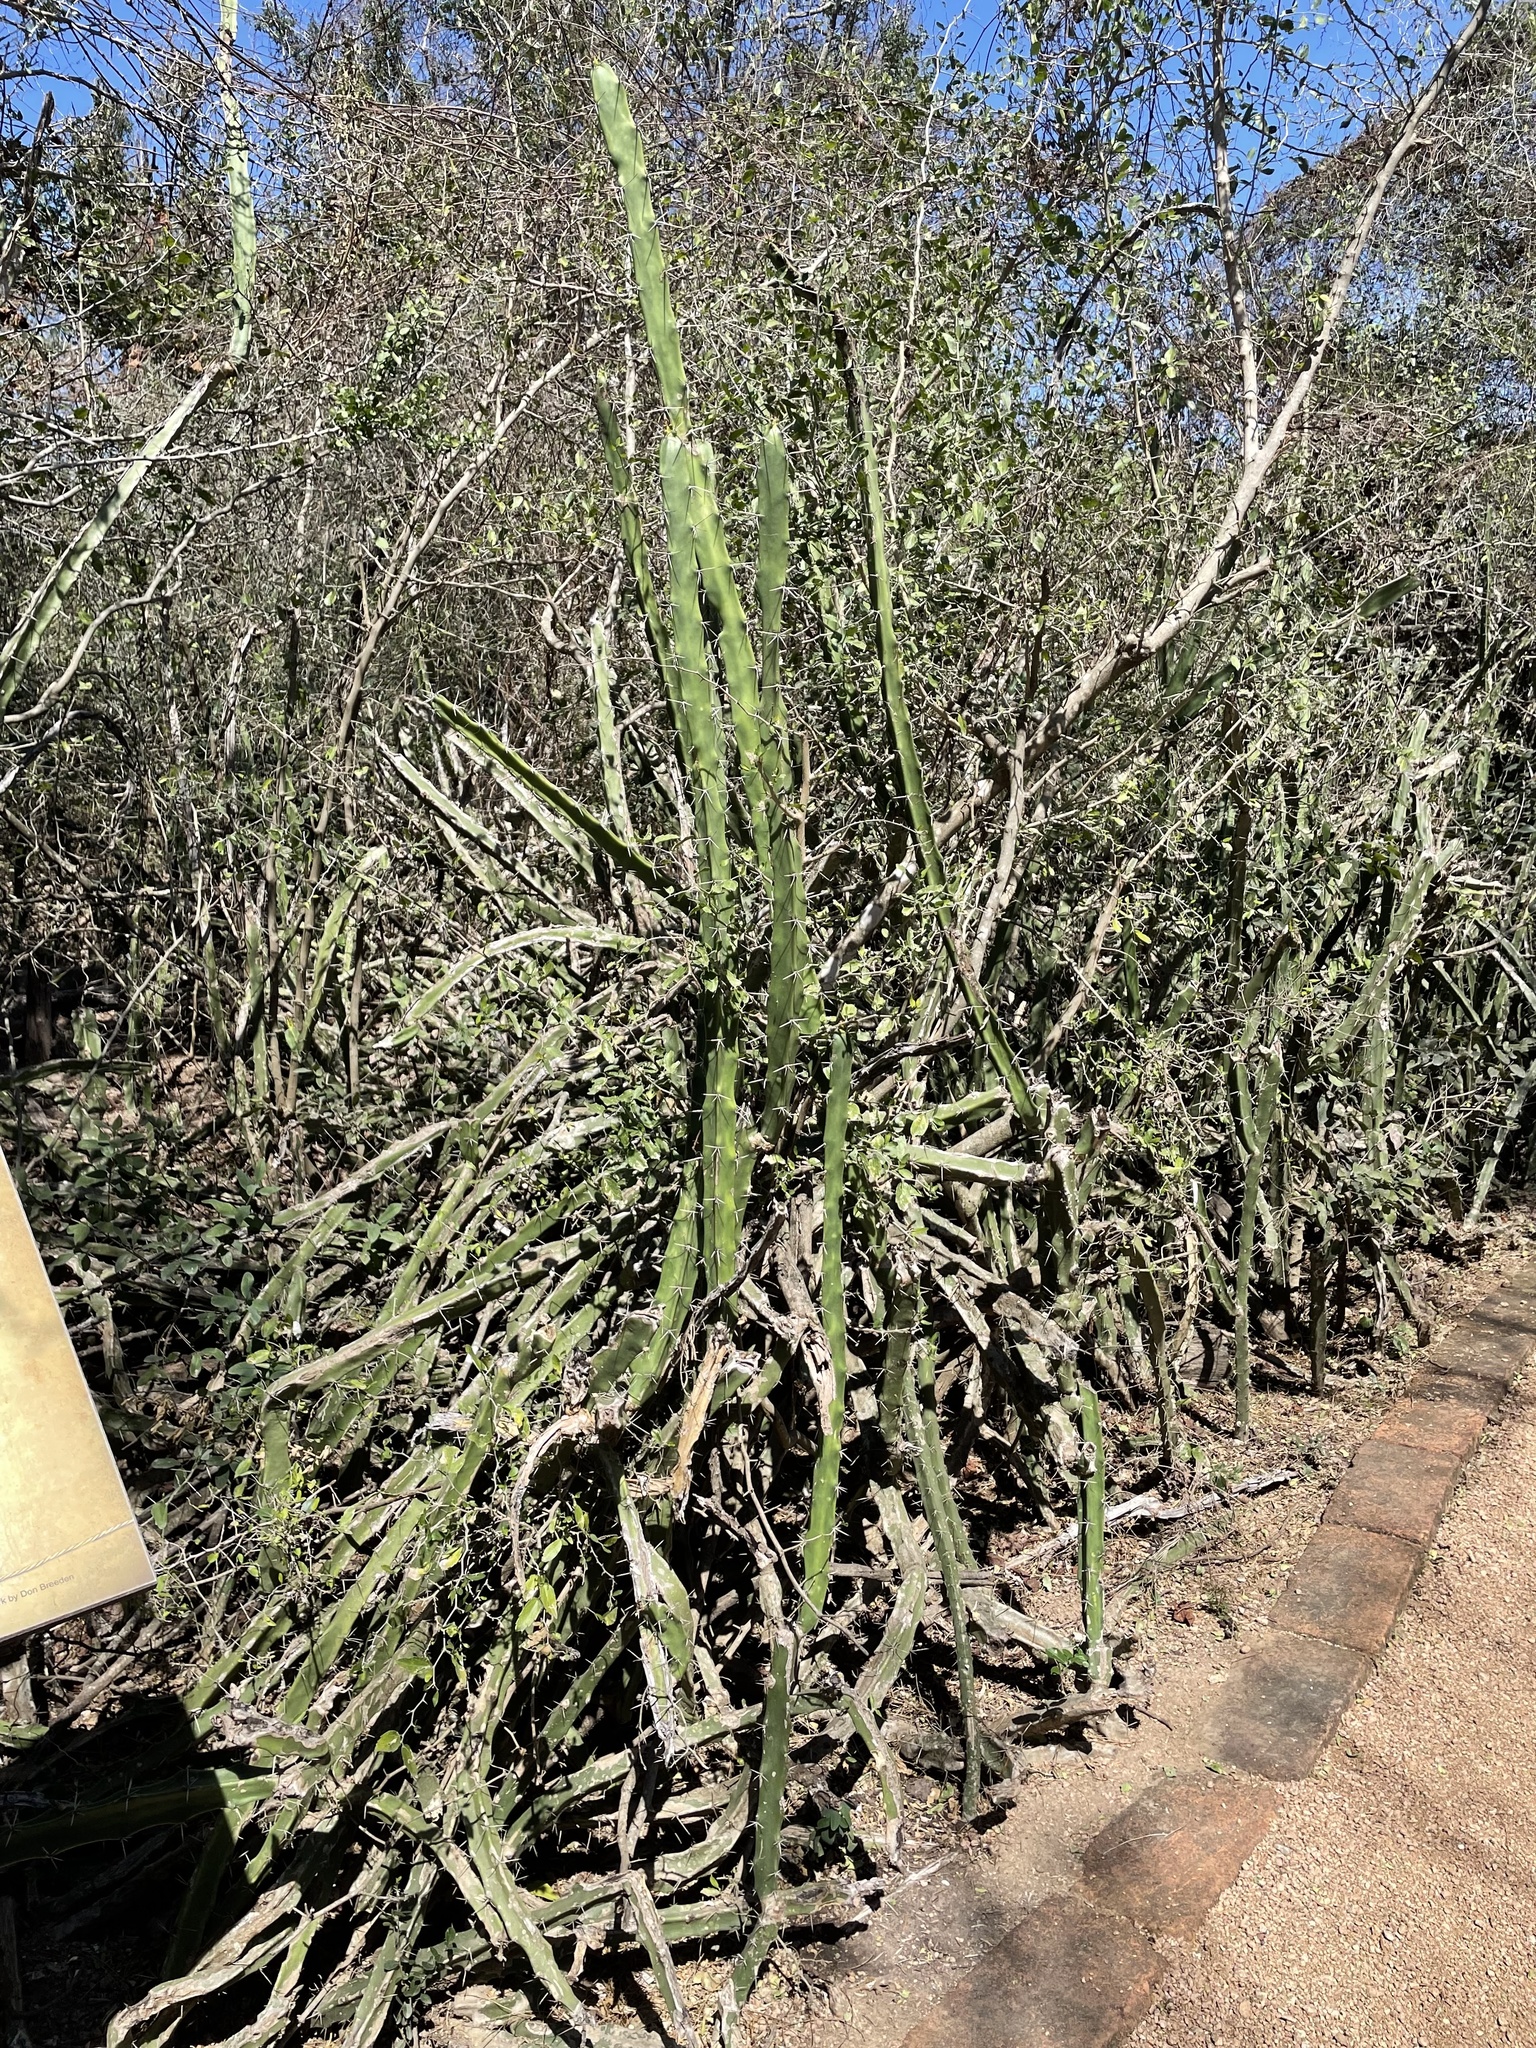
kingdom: Plantae
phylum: Tracheophyta
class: Magnoliopsida
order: Caryophyllales
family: Cactaceae
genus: Acanthocereus
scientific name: Acanthocereus tetragonus
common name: Triangle cactus
